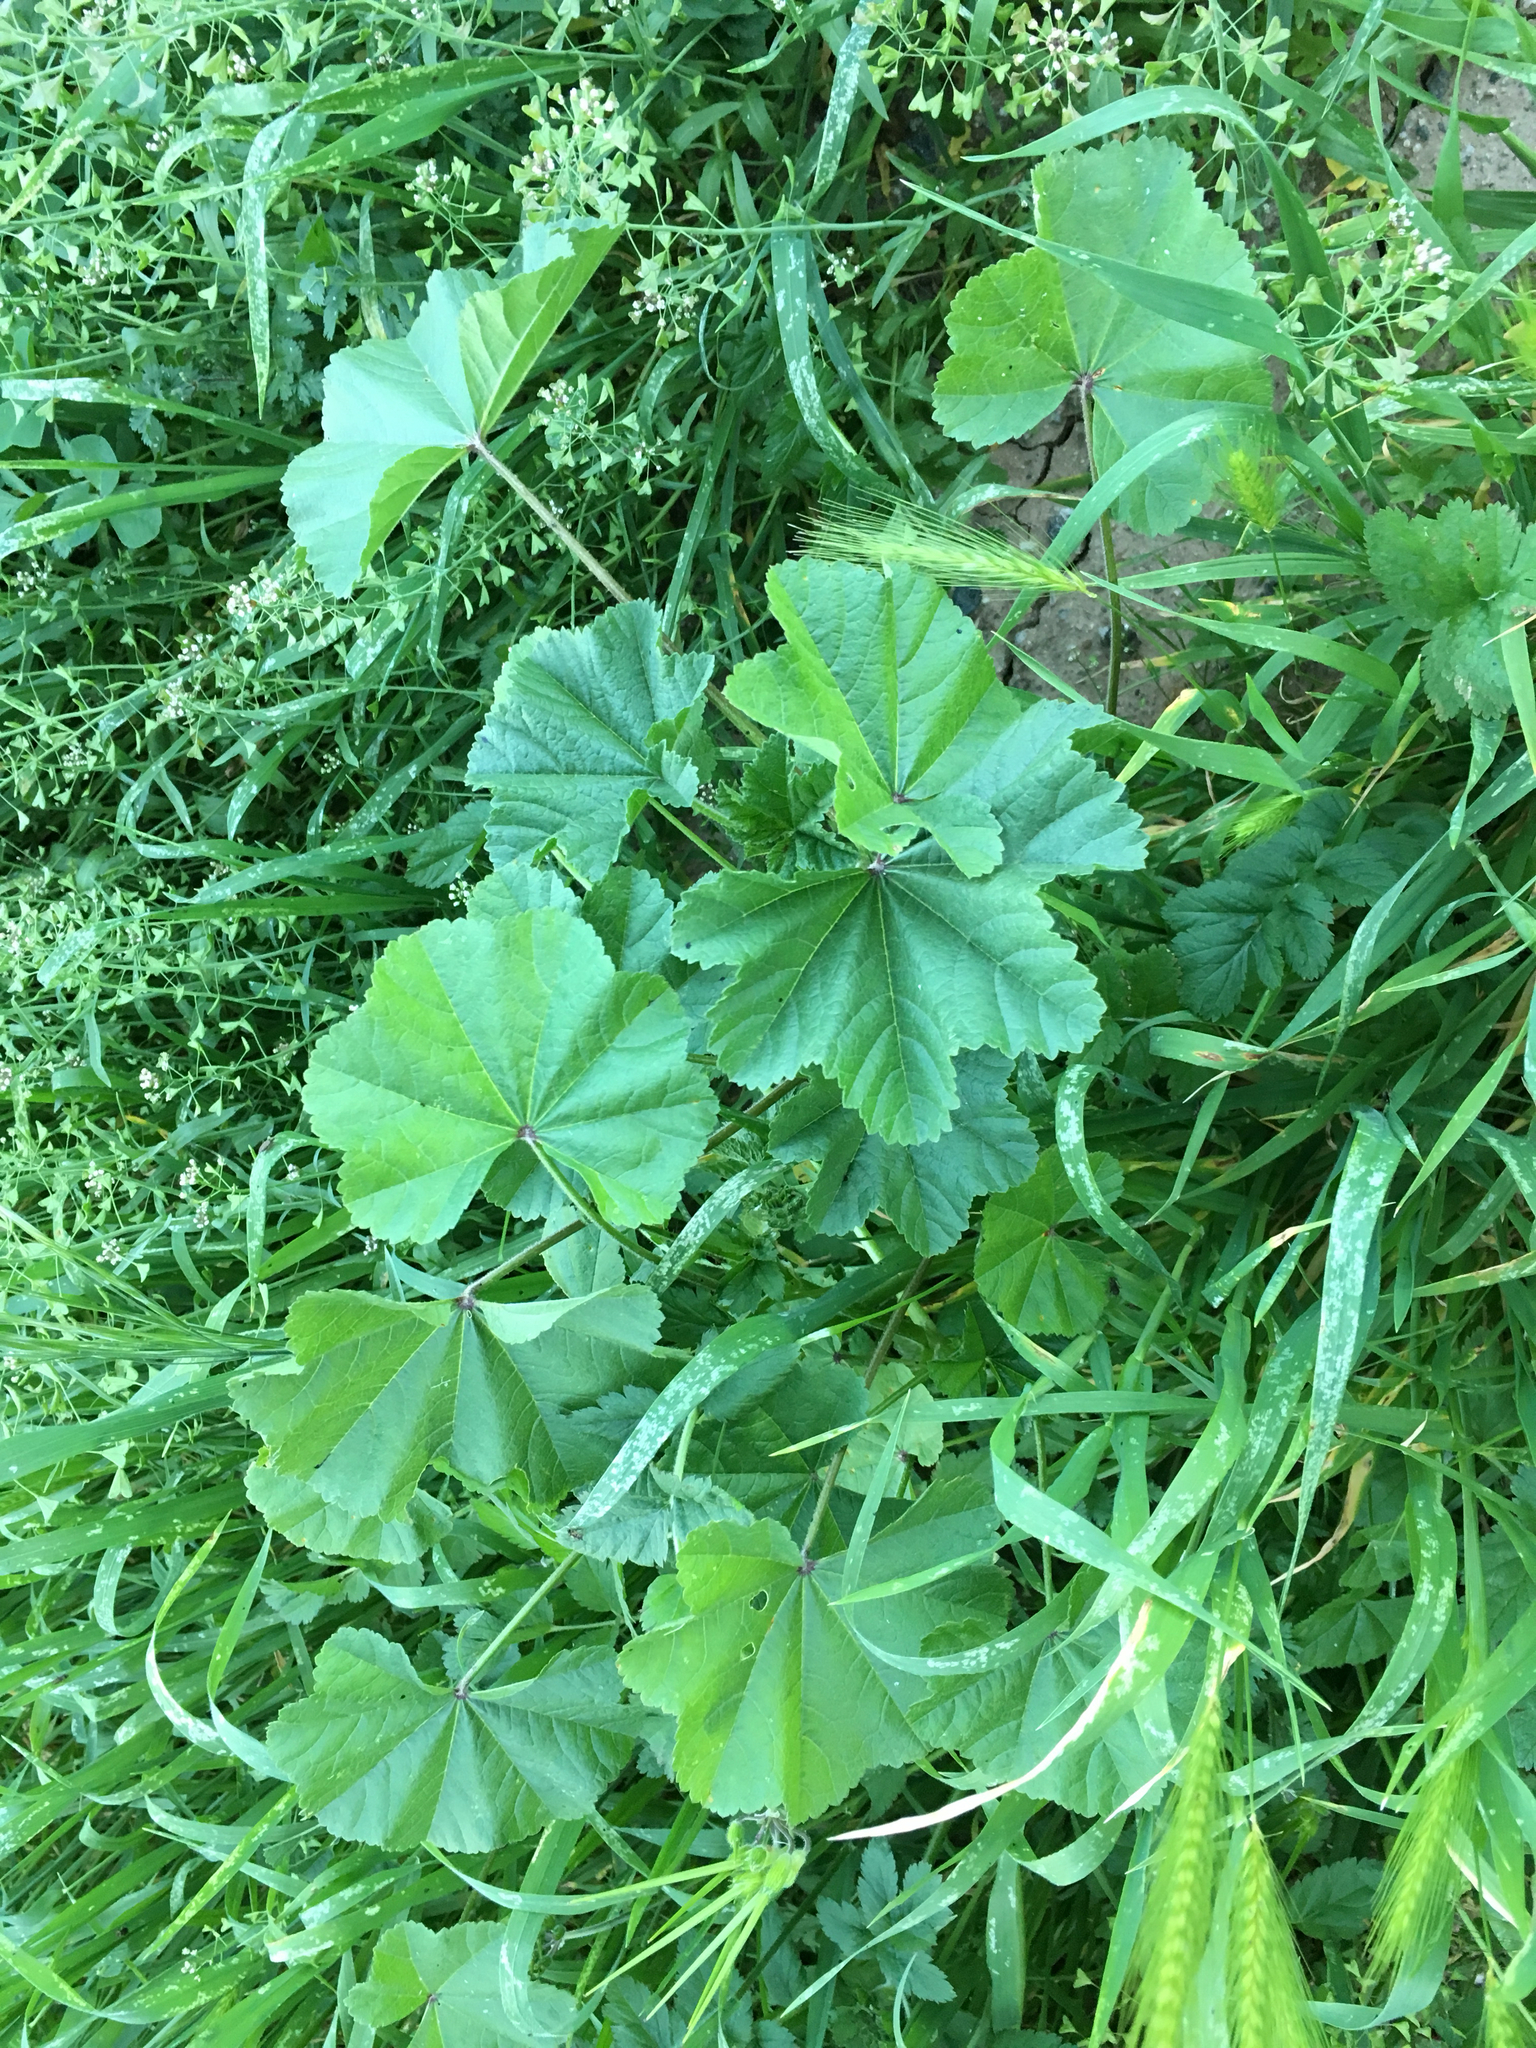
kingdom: Plantae
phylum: Tracheophyta
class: Magnoliopsida
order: Malvales
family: Malvaceae
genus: Malva
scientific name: Malva parviflora
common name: Least mallow
